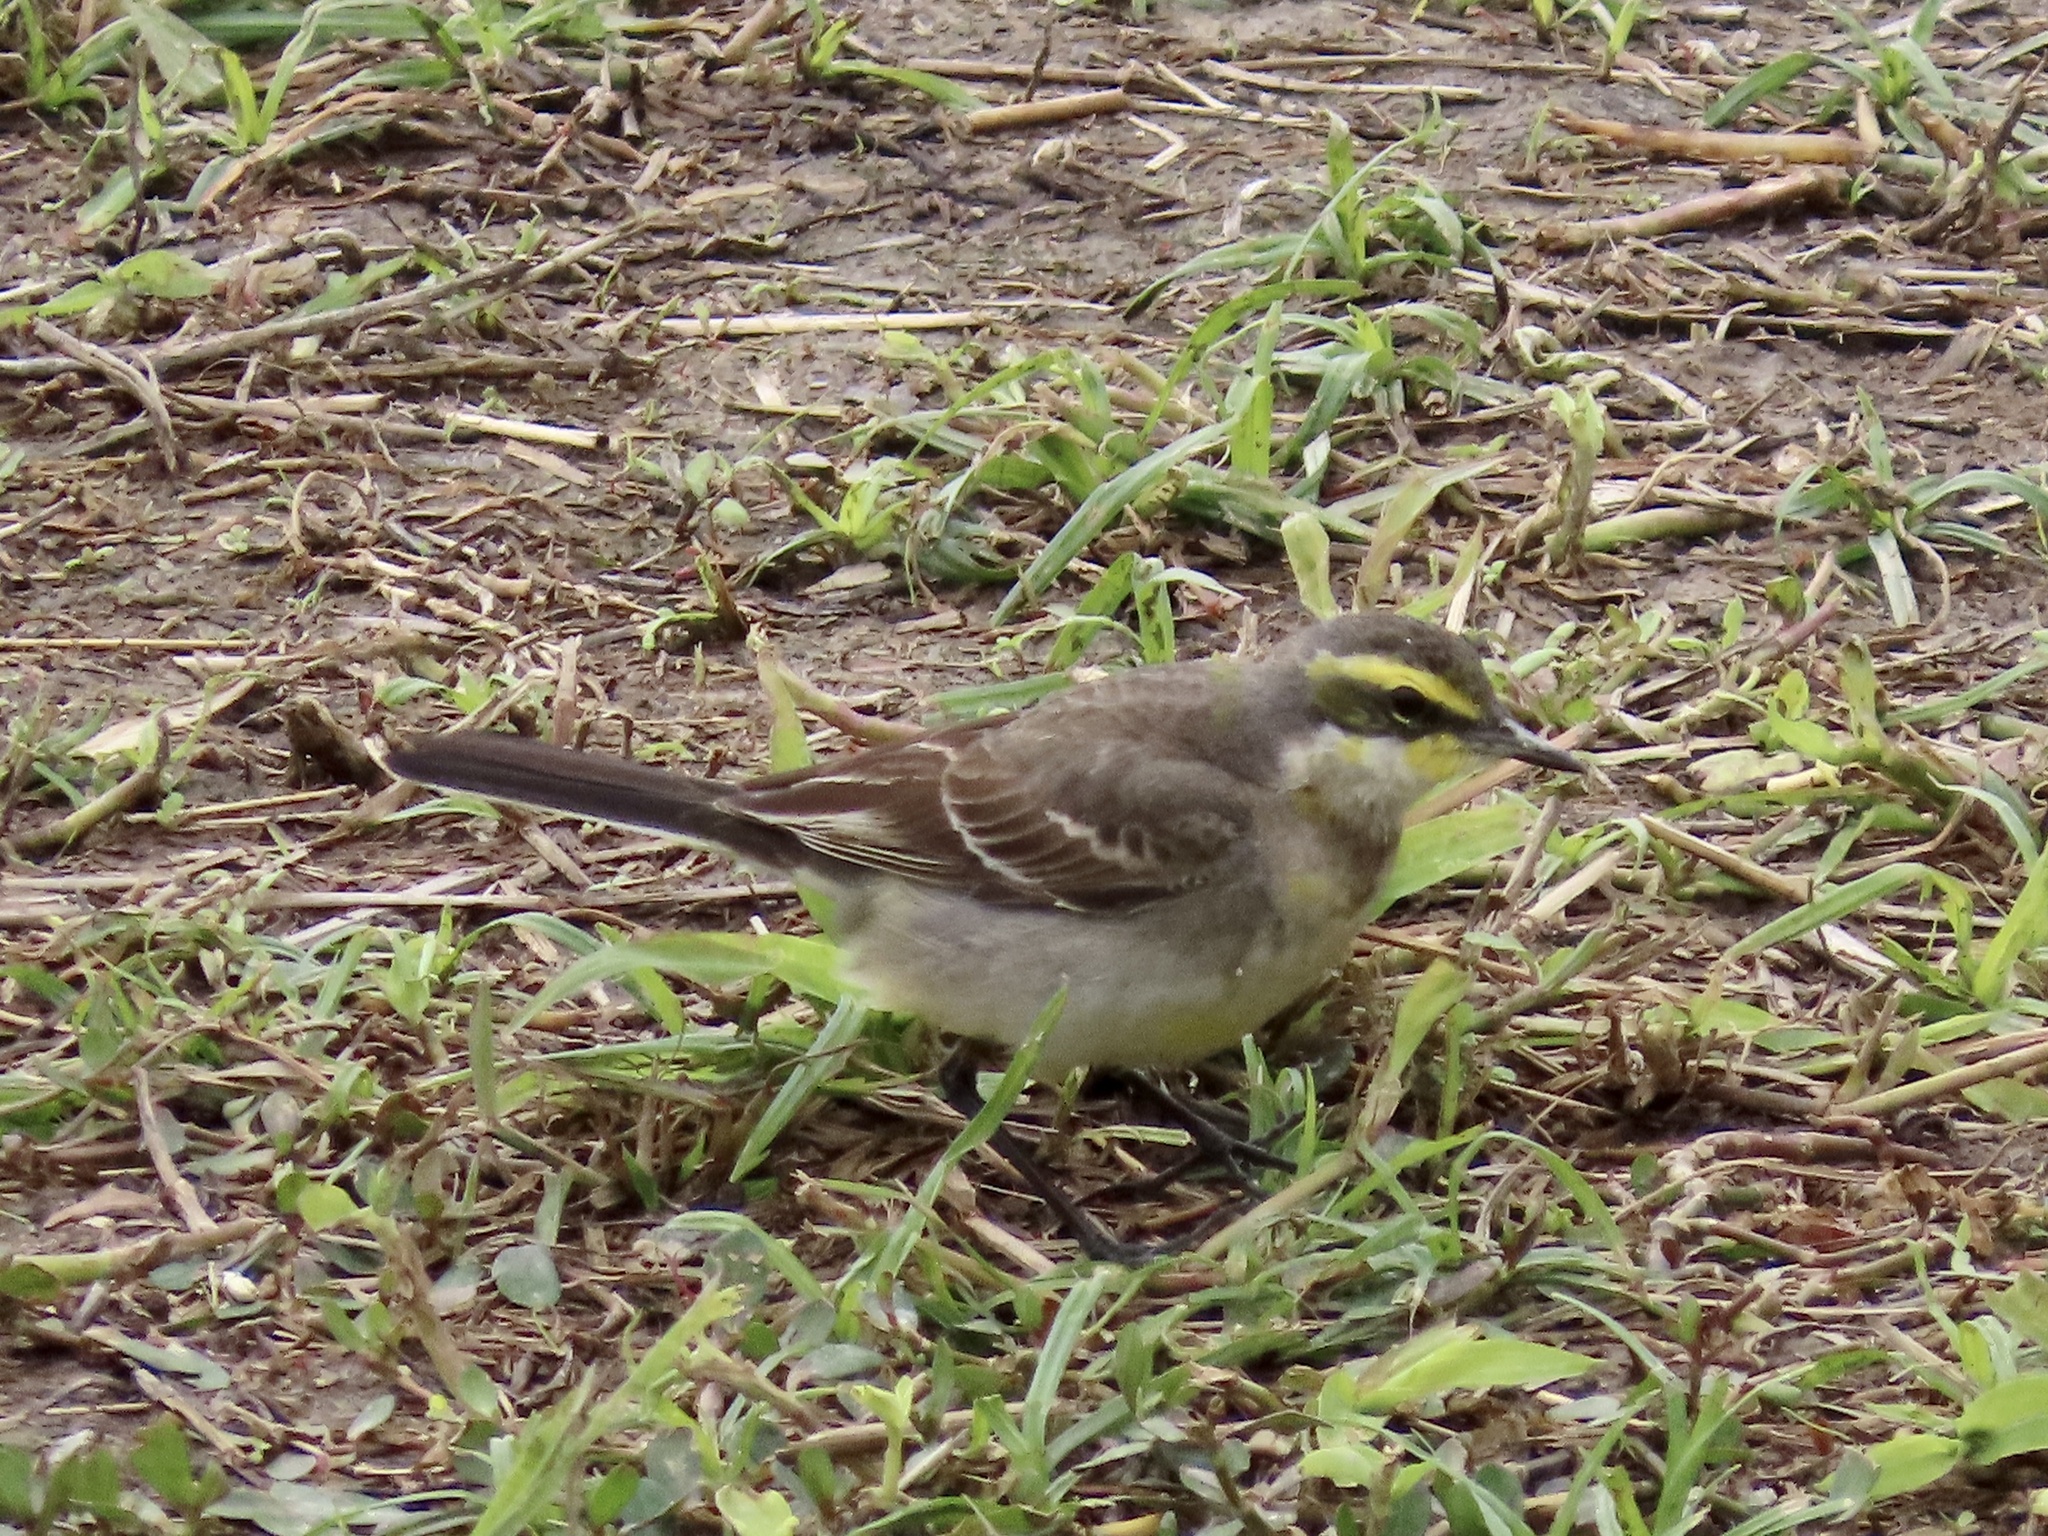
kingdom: Animalia
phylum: Chordata
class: Aves
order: Passeriformes
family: Motacillidae
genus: Motacilla
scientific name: Motacilla tschutschensis
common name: Eastern yellow wagtail
